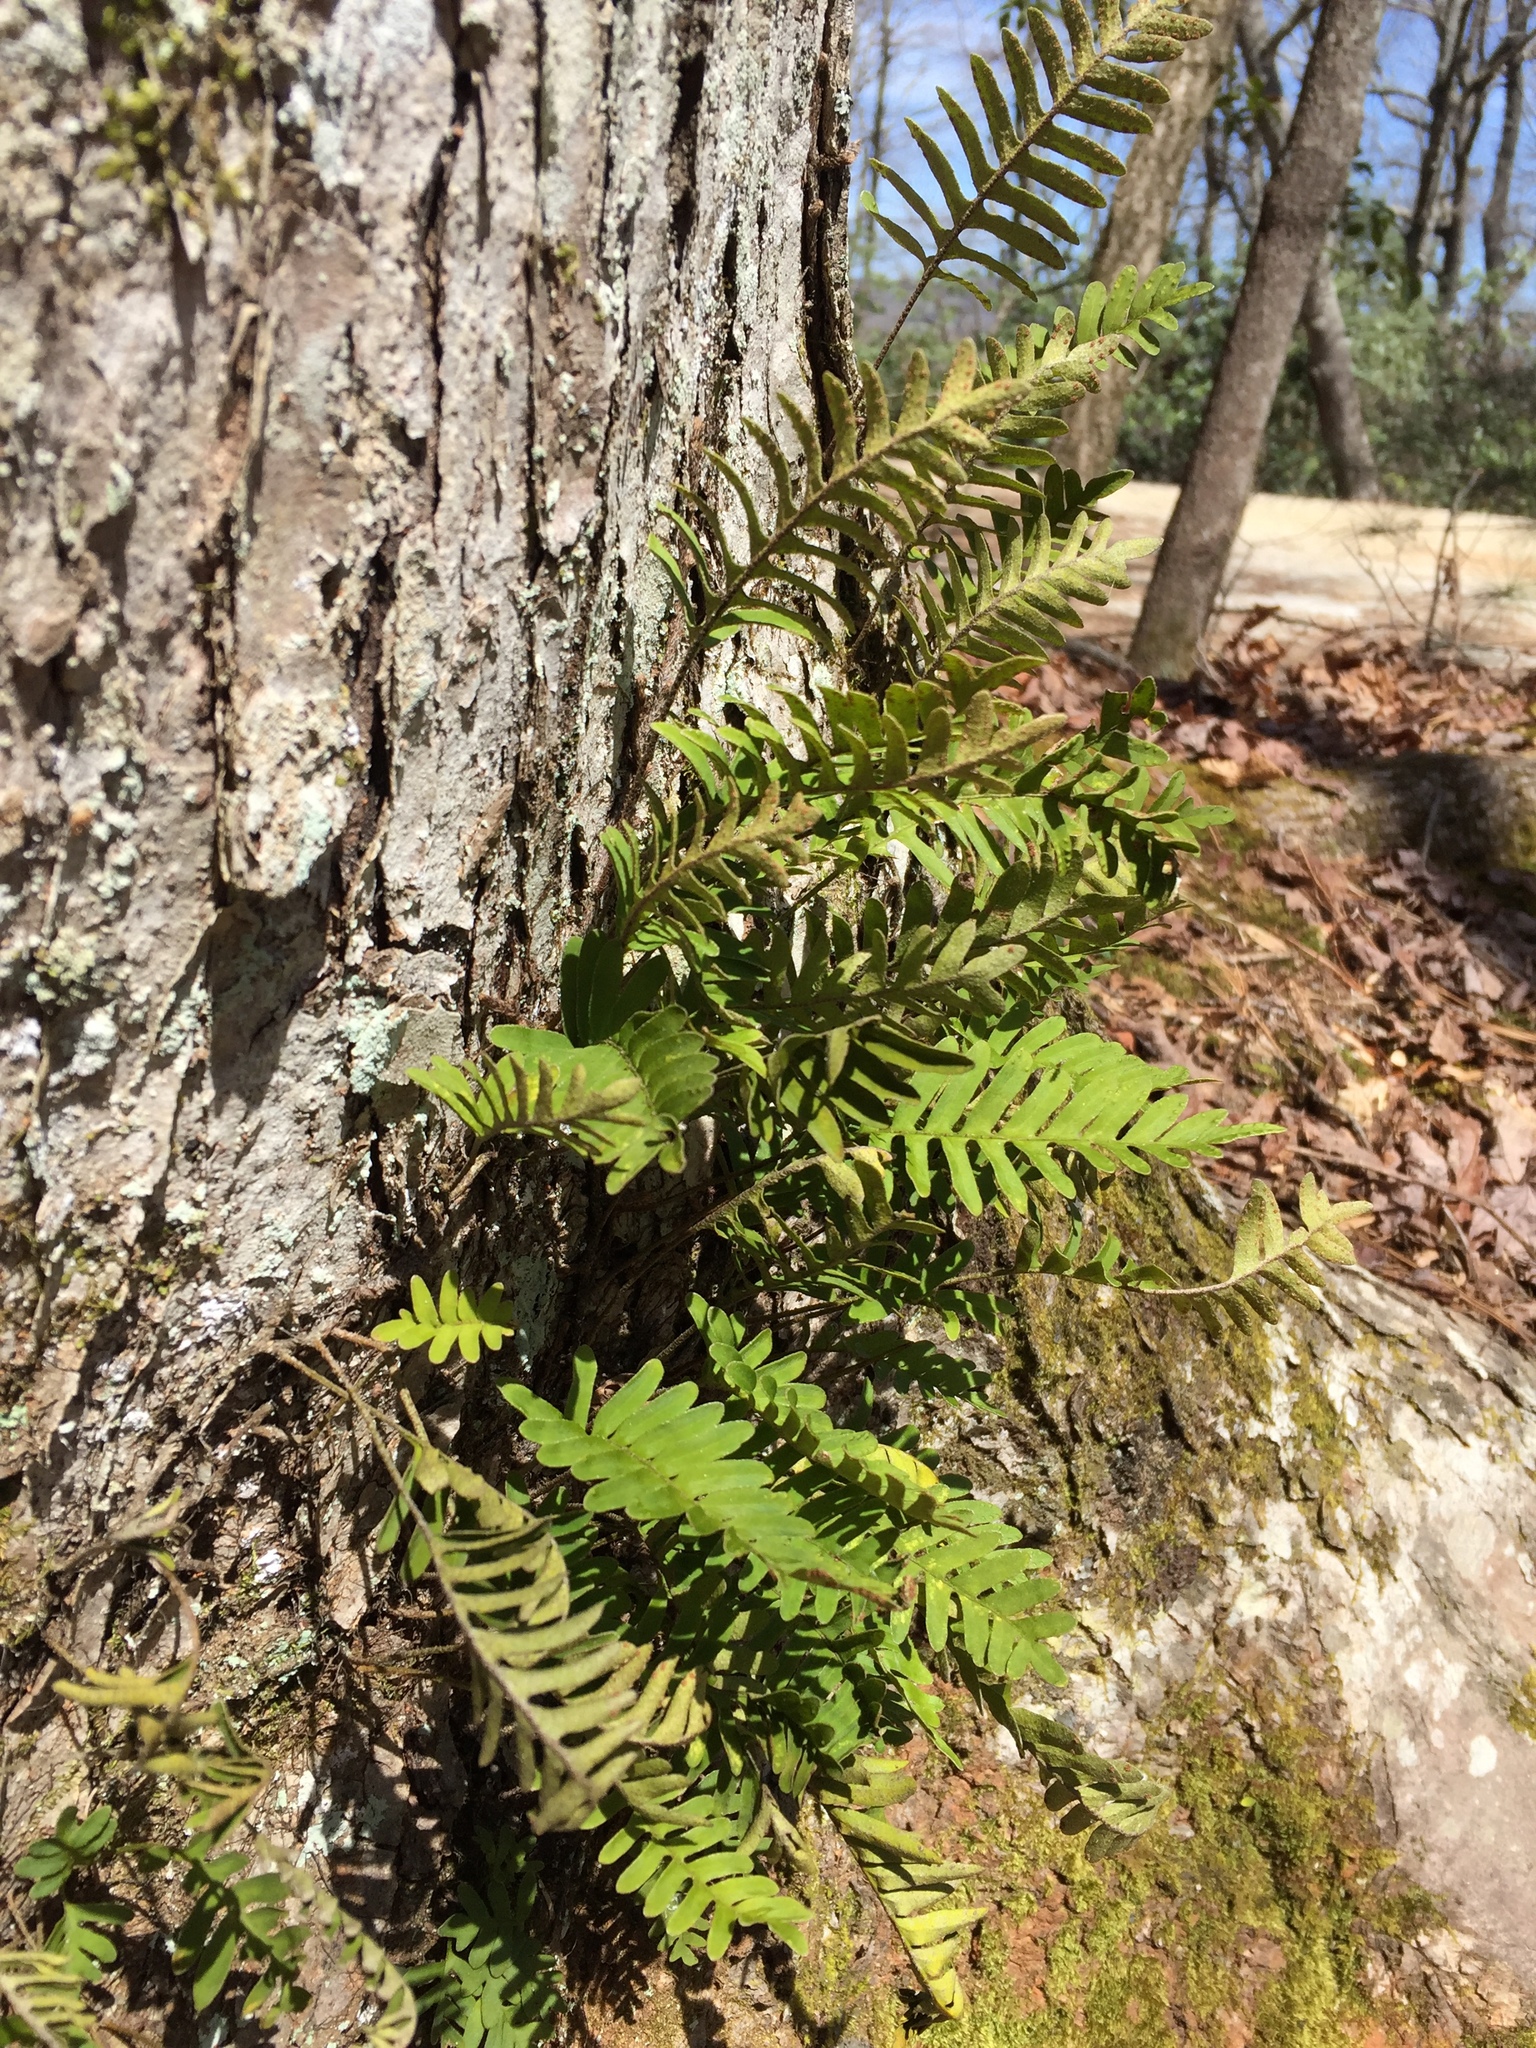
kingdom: Plantae
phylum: Tracheophyta
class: Polypodiopsida
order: Polypodiales
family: Polypodiaceae
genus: Pleopeltis
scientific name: Pleopeltis michauxiana
